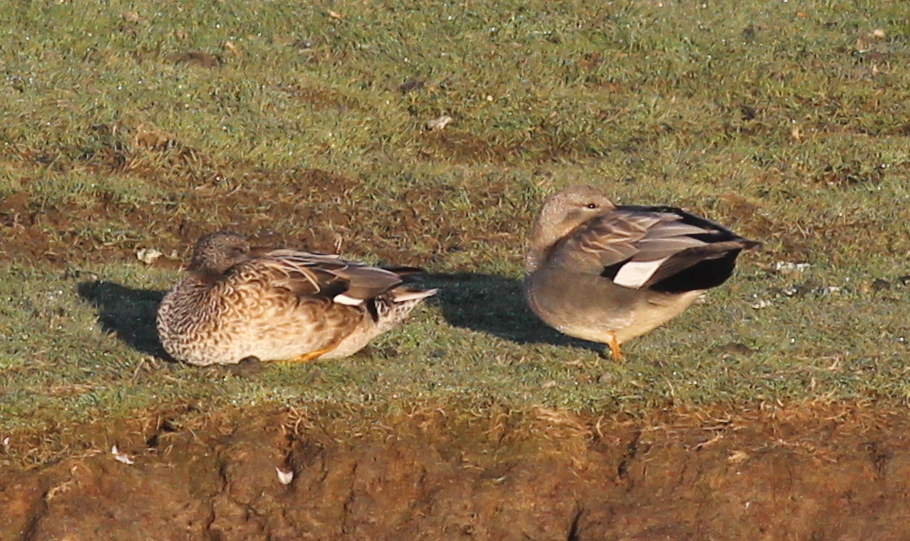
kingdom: Animalia
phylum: Chordata
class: Aves
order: Anseriformes
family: Anatidae
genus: Mareca
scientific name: Mareca strepera
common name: Gadwall
